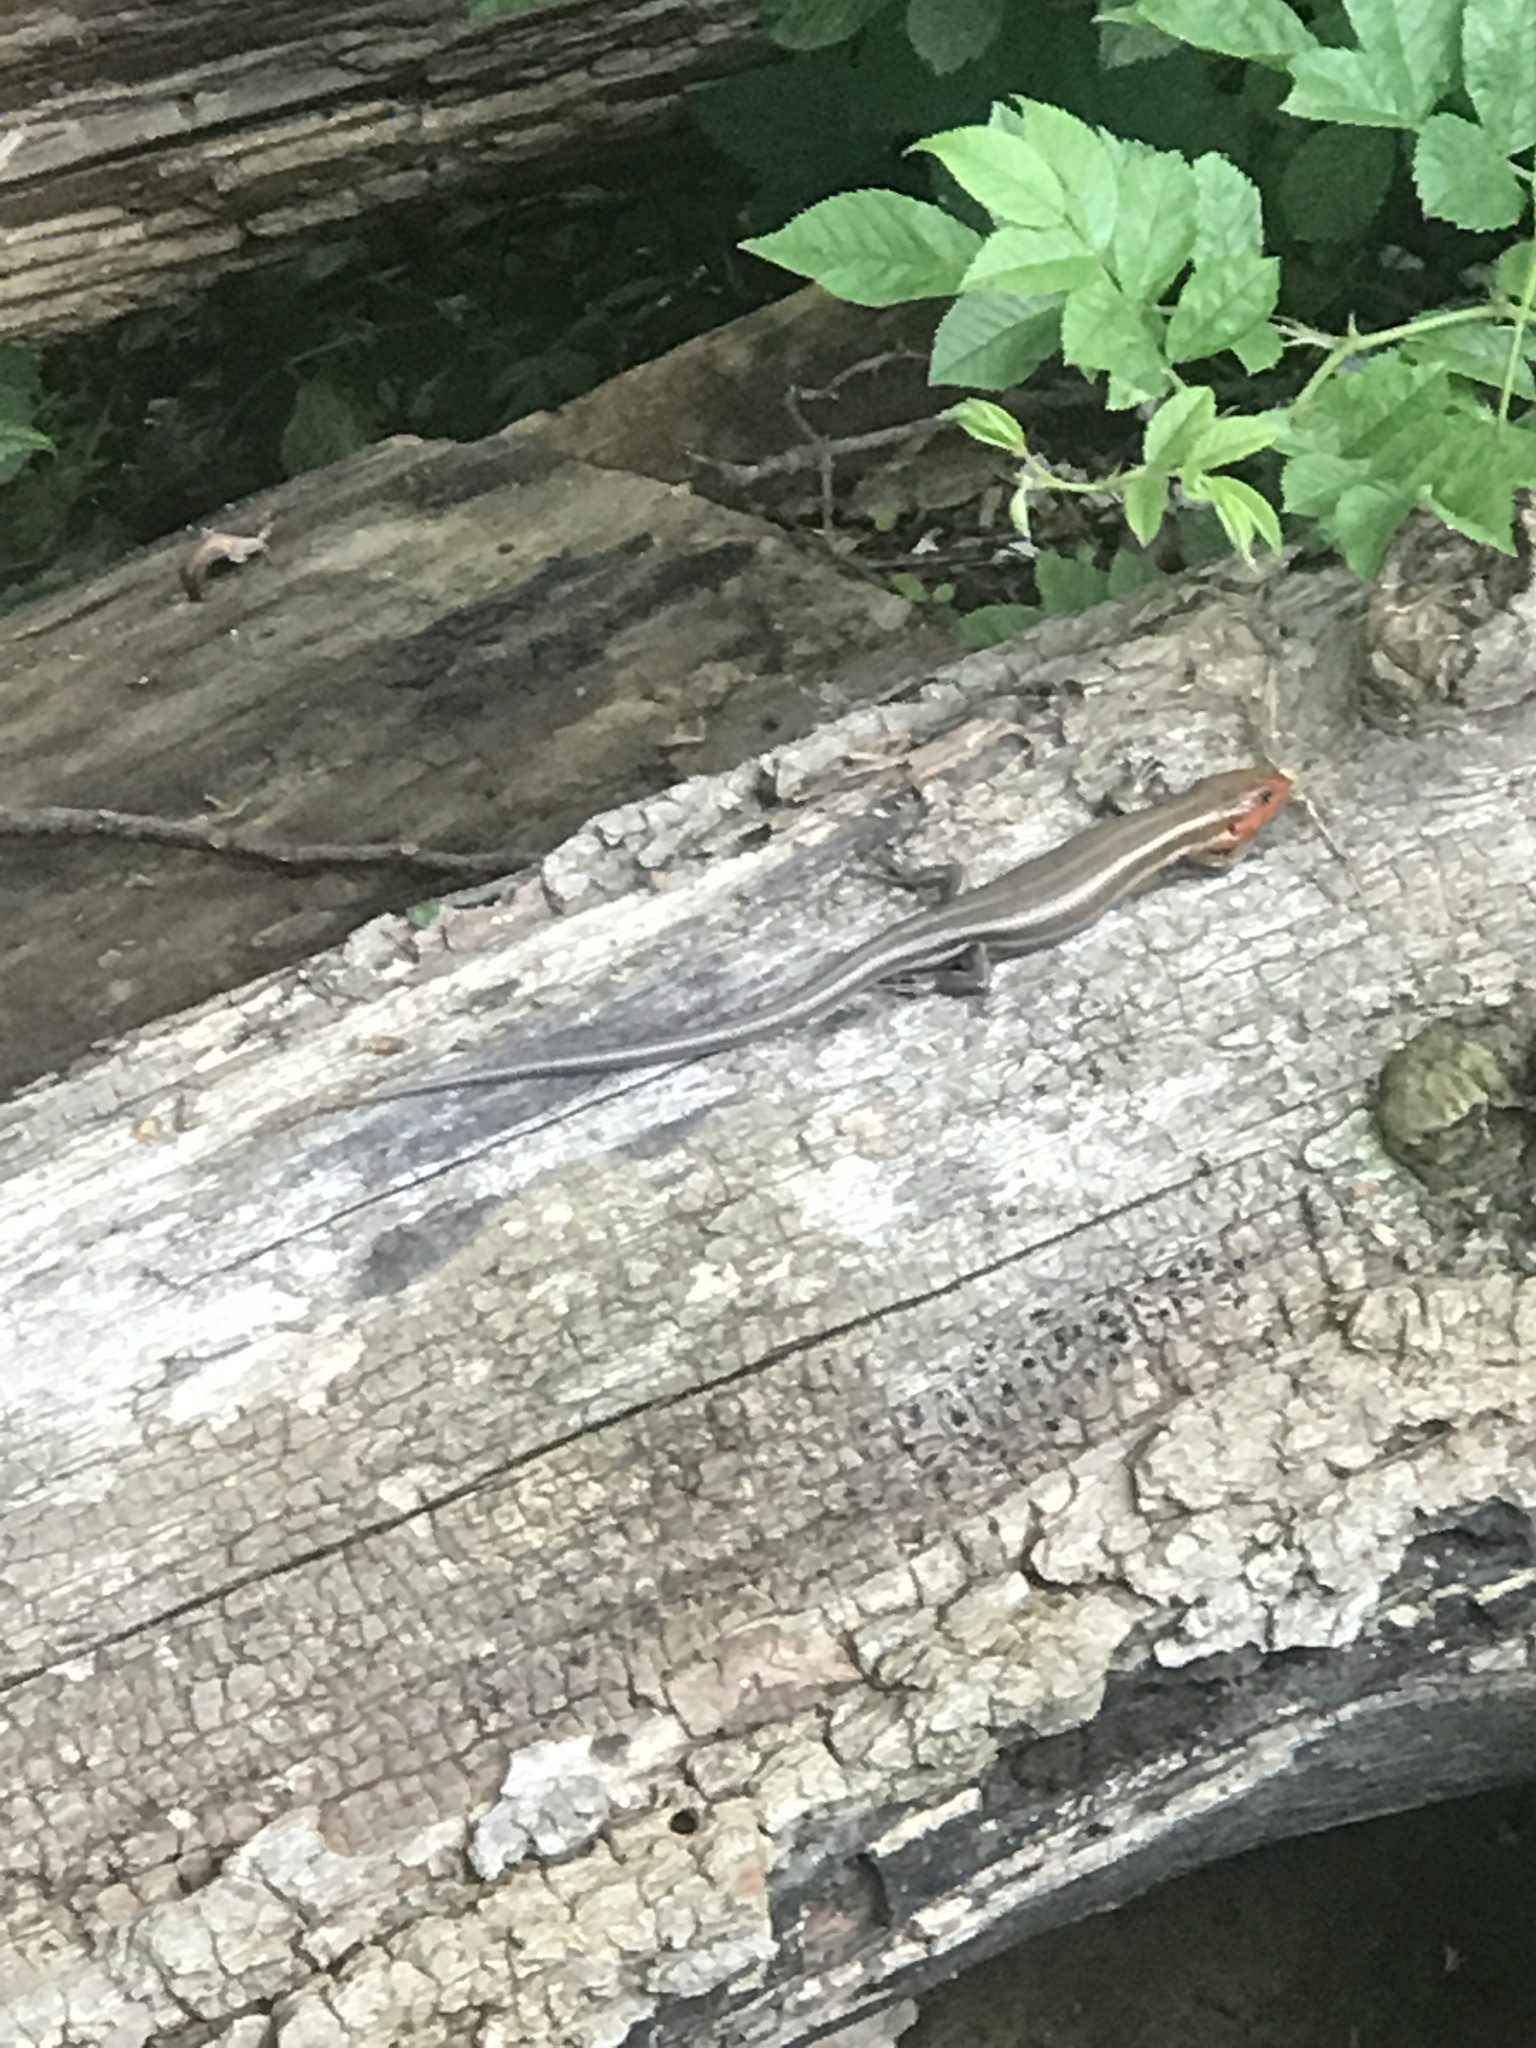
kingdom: Animalia
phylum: Chordata
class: Squamata
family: Scincidae
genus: Plestiodon
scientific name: Plestiodon fasciatus
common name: Five-lined skink
